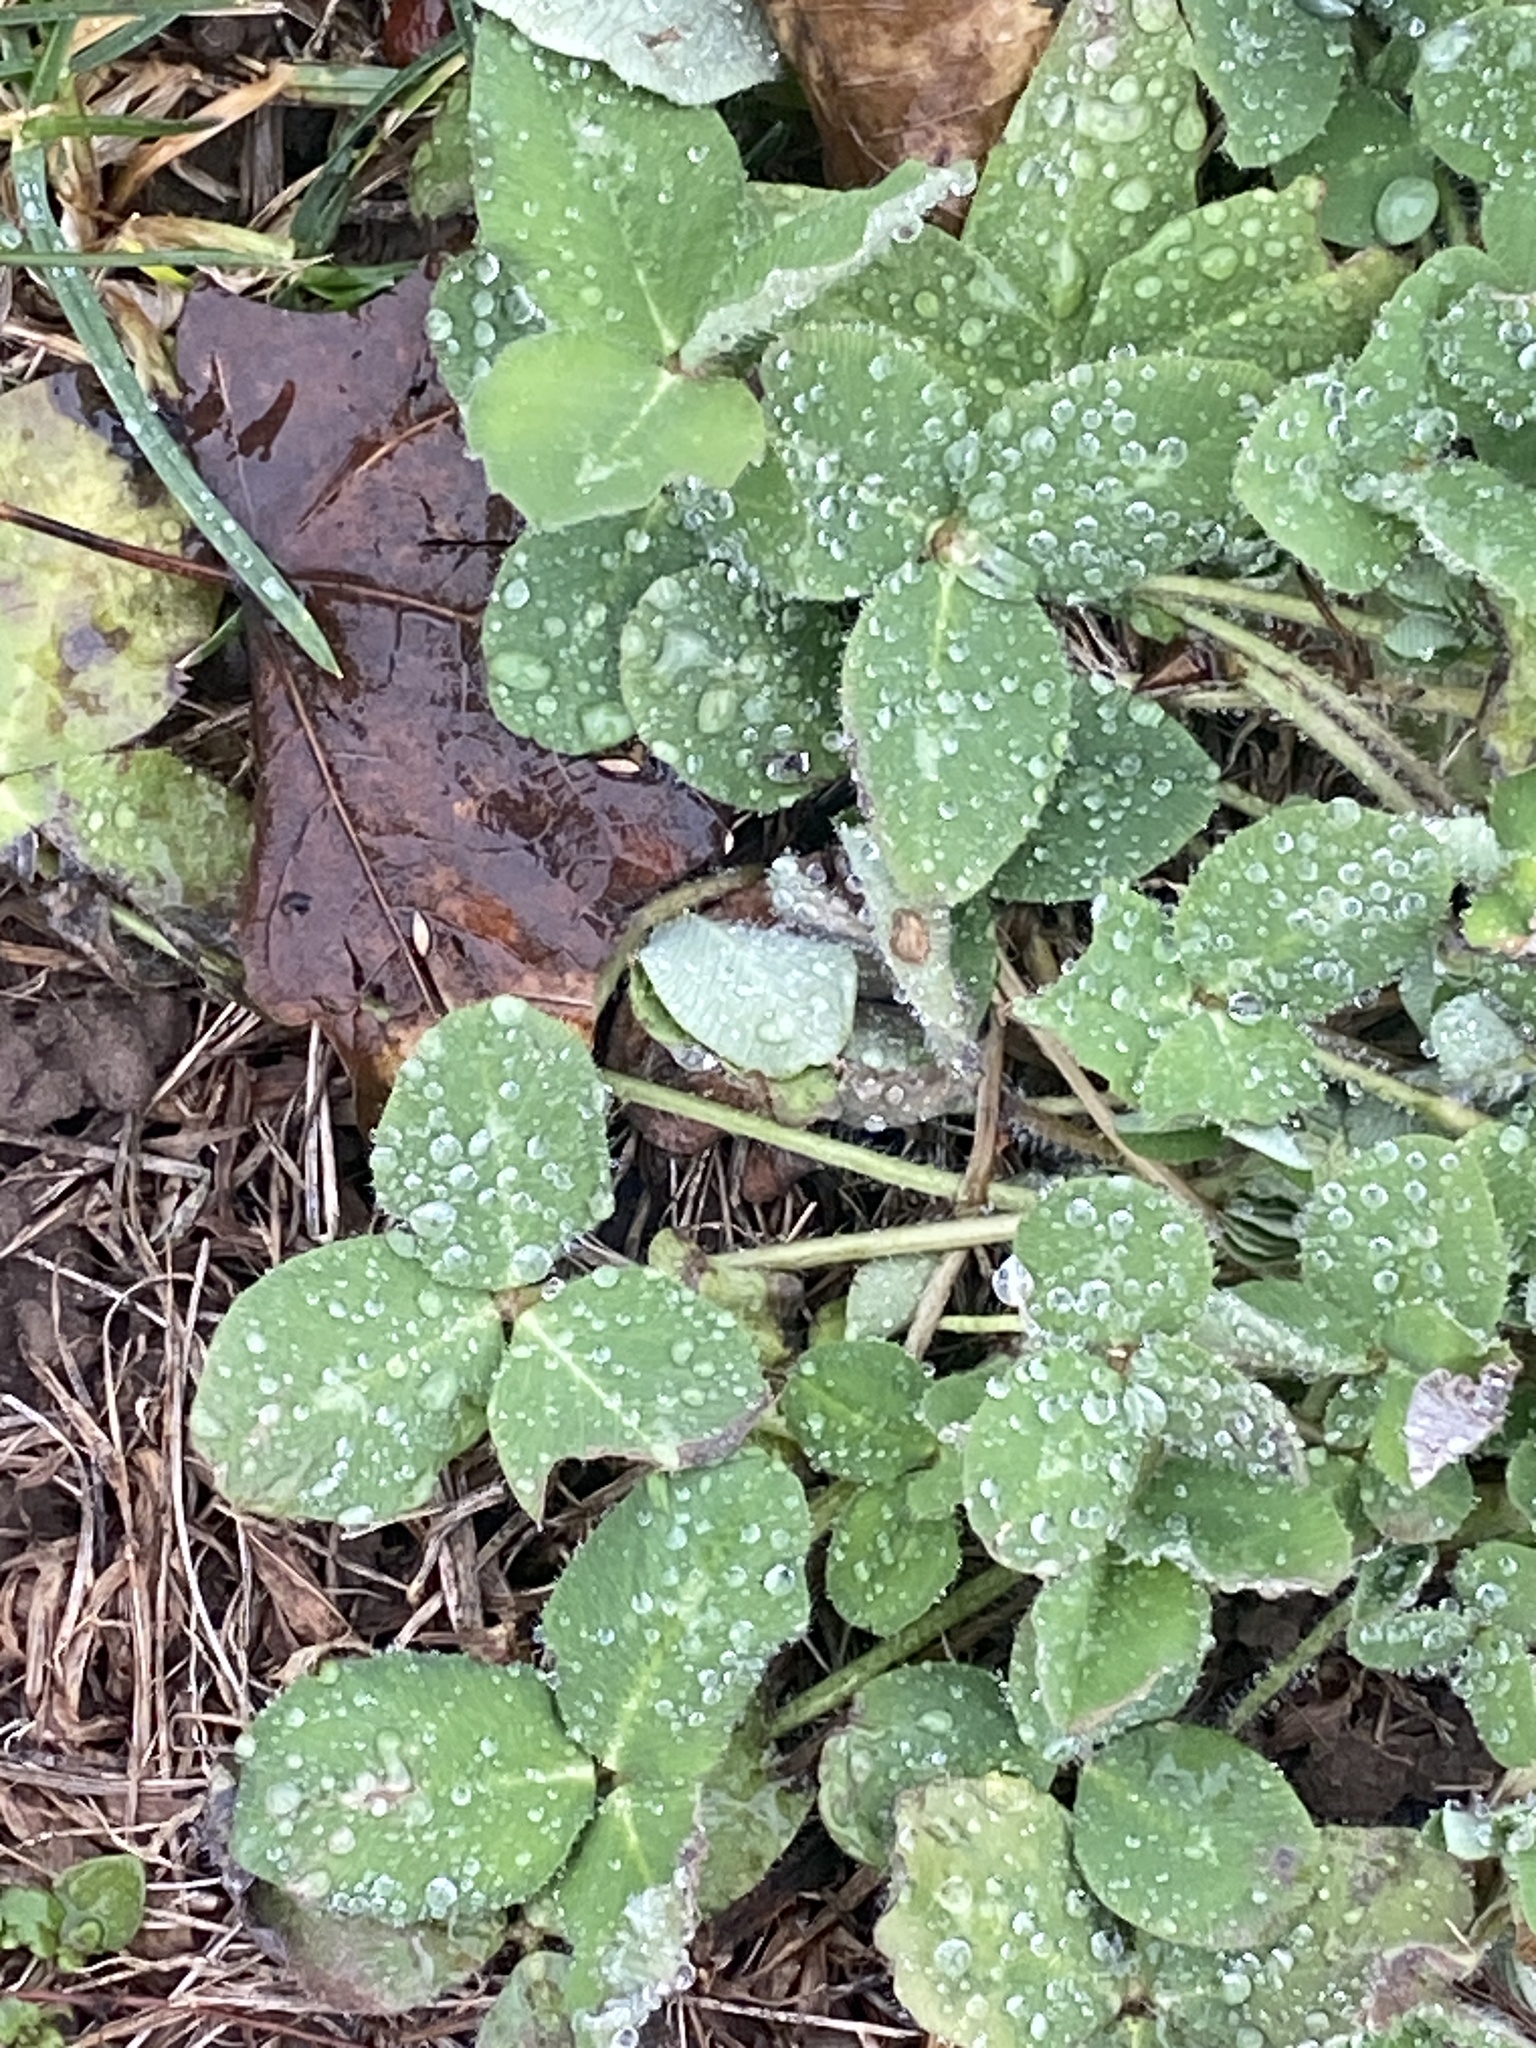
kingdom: Plantae
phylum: Tracheophyta
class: Magnoliopsida
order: Fabales
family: Fabaceae
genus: Trifolium
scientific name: Trifolium pratense
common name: Red clover
